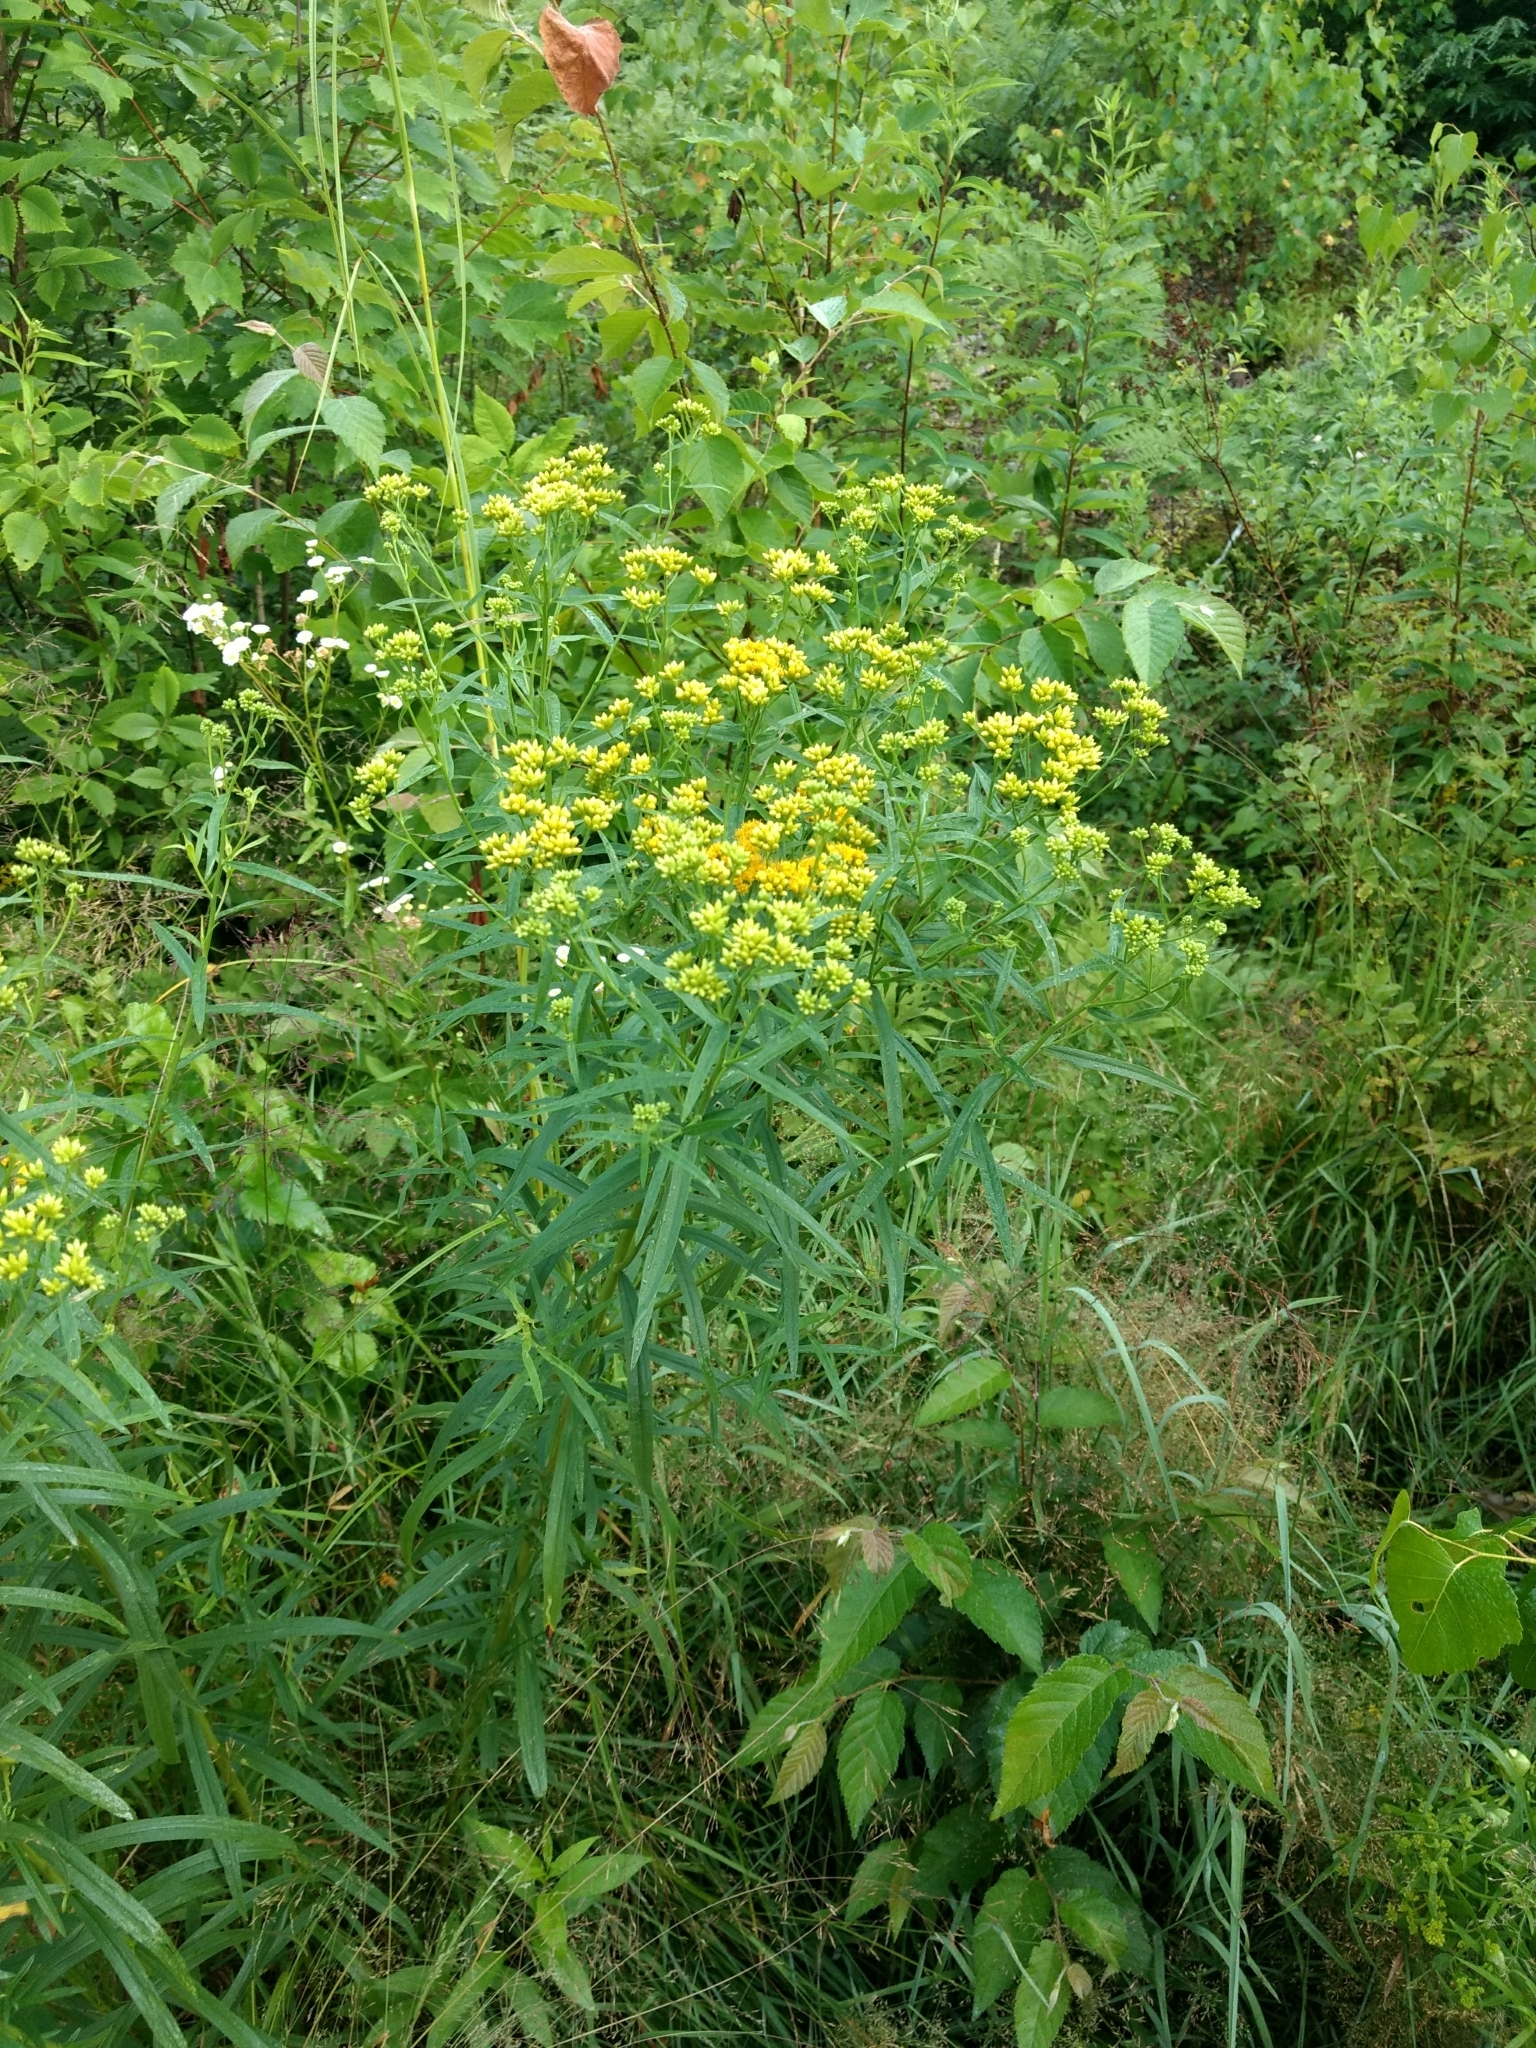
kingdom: Plantae
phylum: Tracheophyta
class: Magnoliopsida
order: Asterales
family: Asteraceae
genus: Euthamia
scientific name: Euthamia graminifolia
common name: Common goldentop
